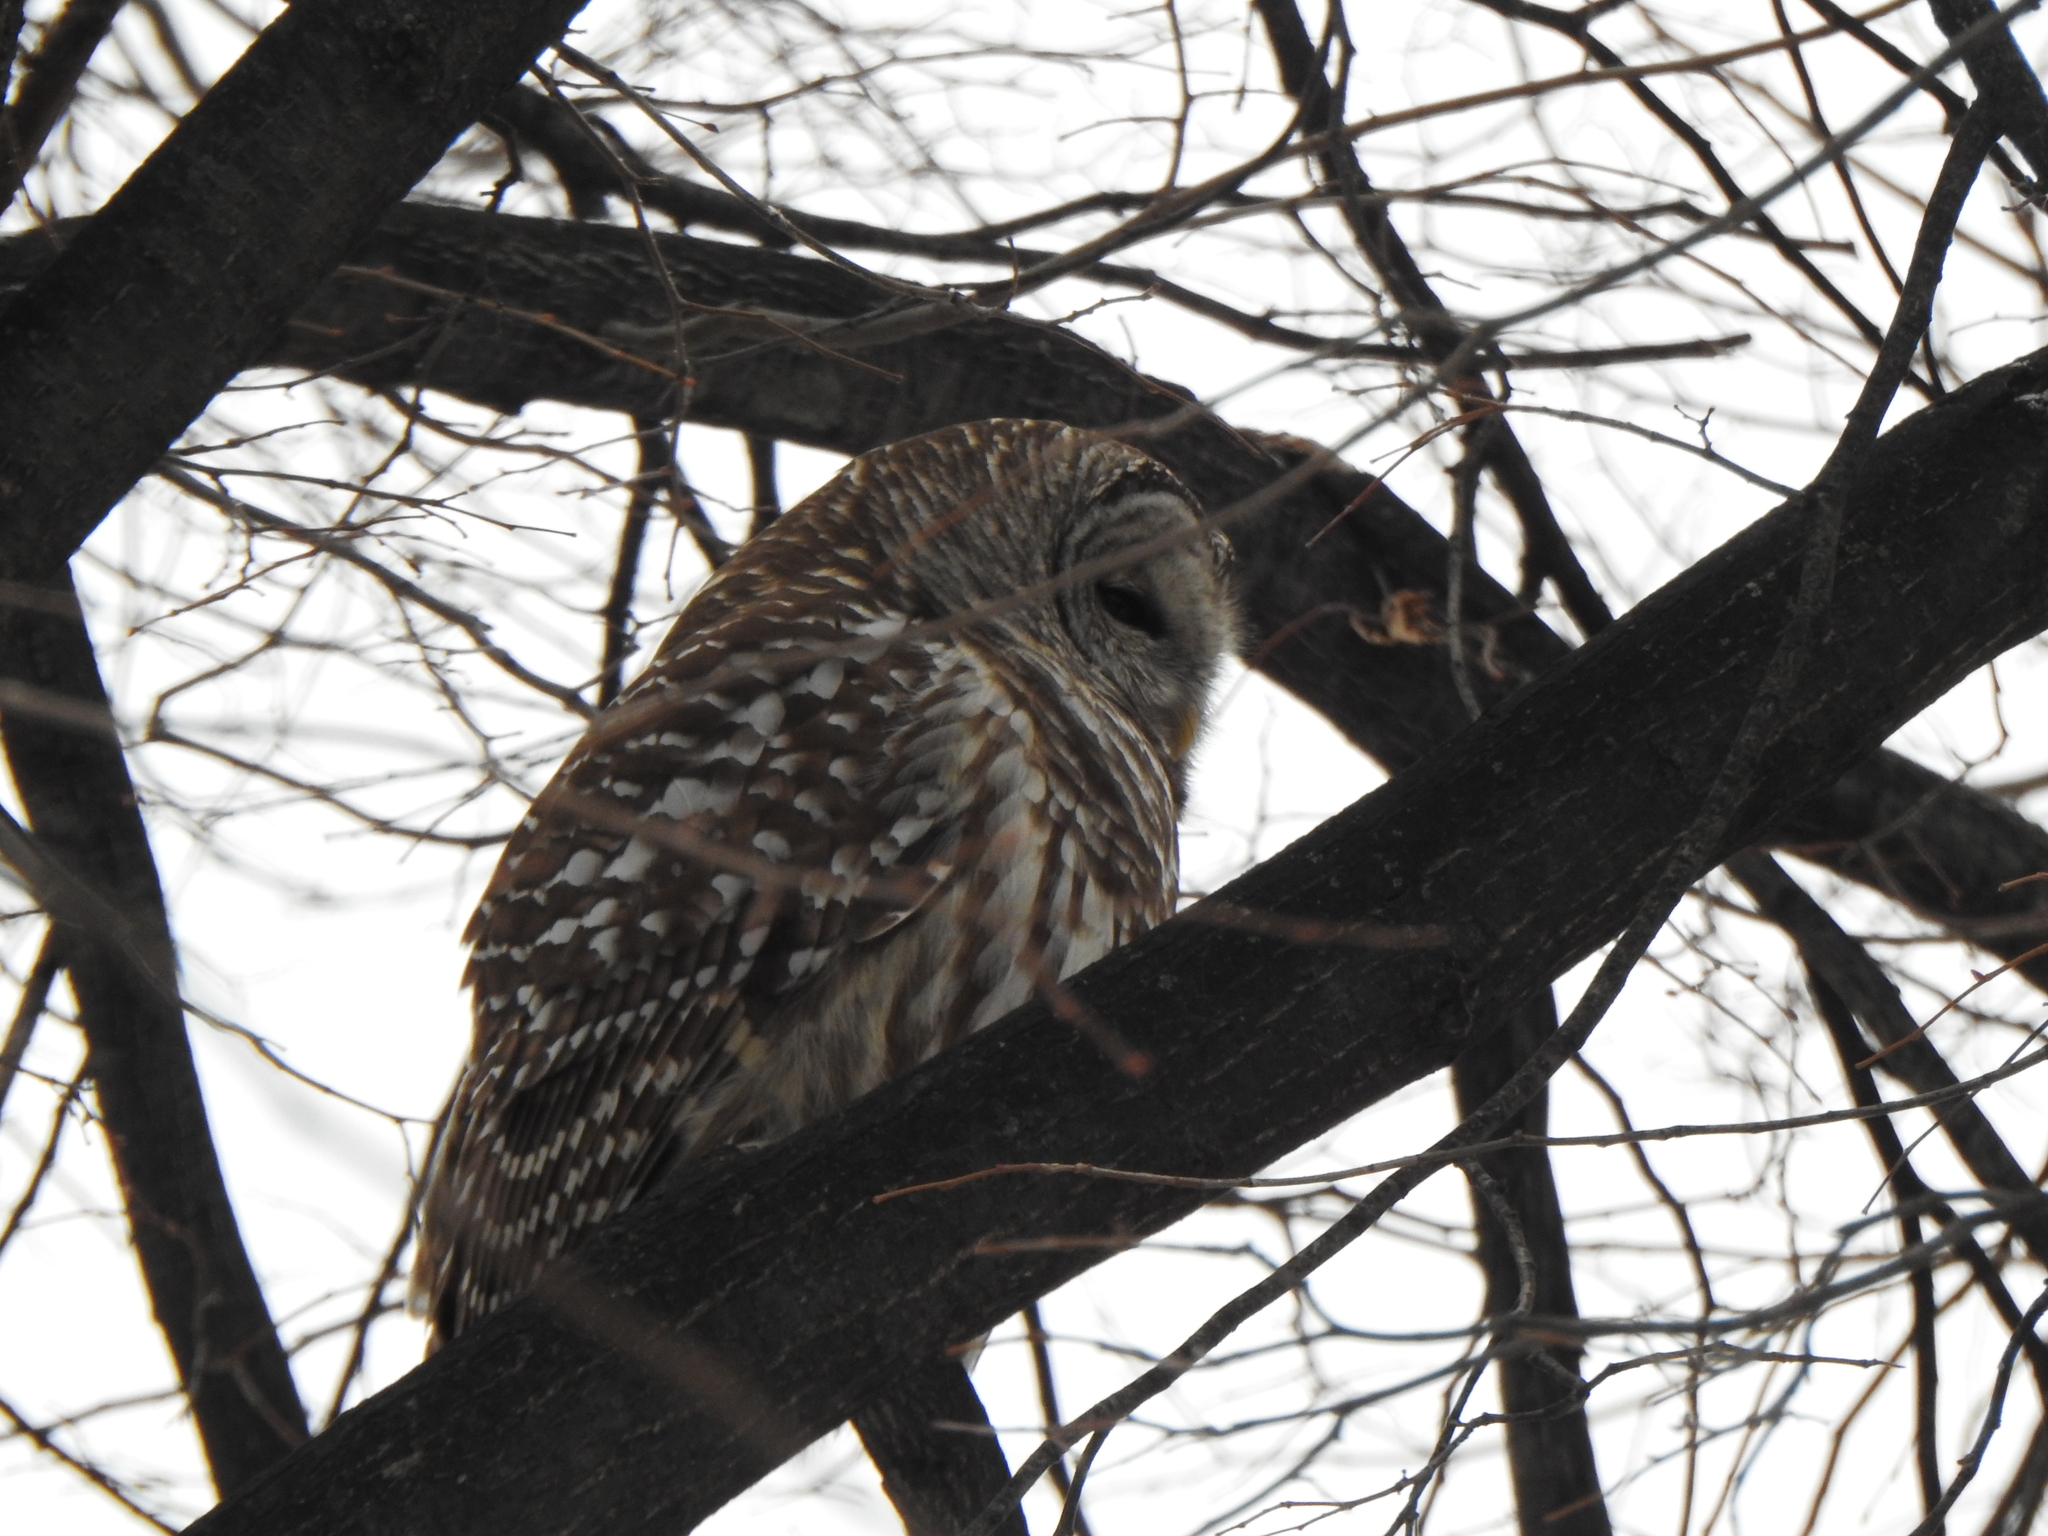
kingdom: Animalia
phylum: Chordata
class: Aves
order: Strigiformes
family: Strigidae
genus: Strix
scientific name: Strix varia
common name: Barred owl
